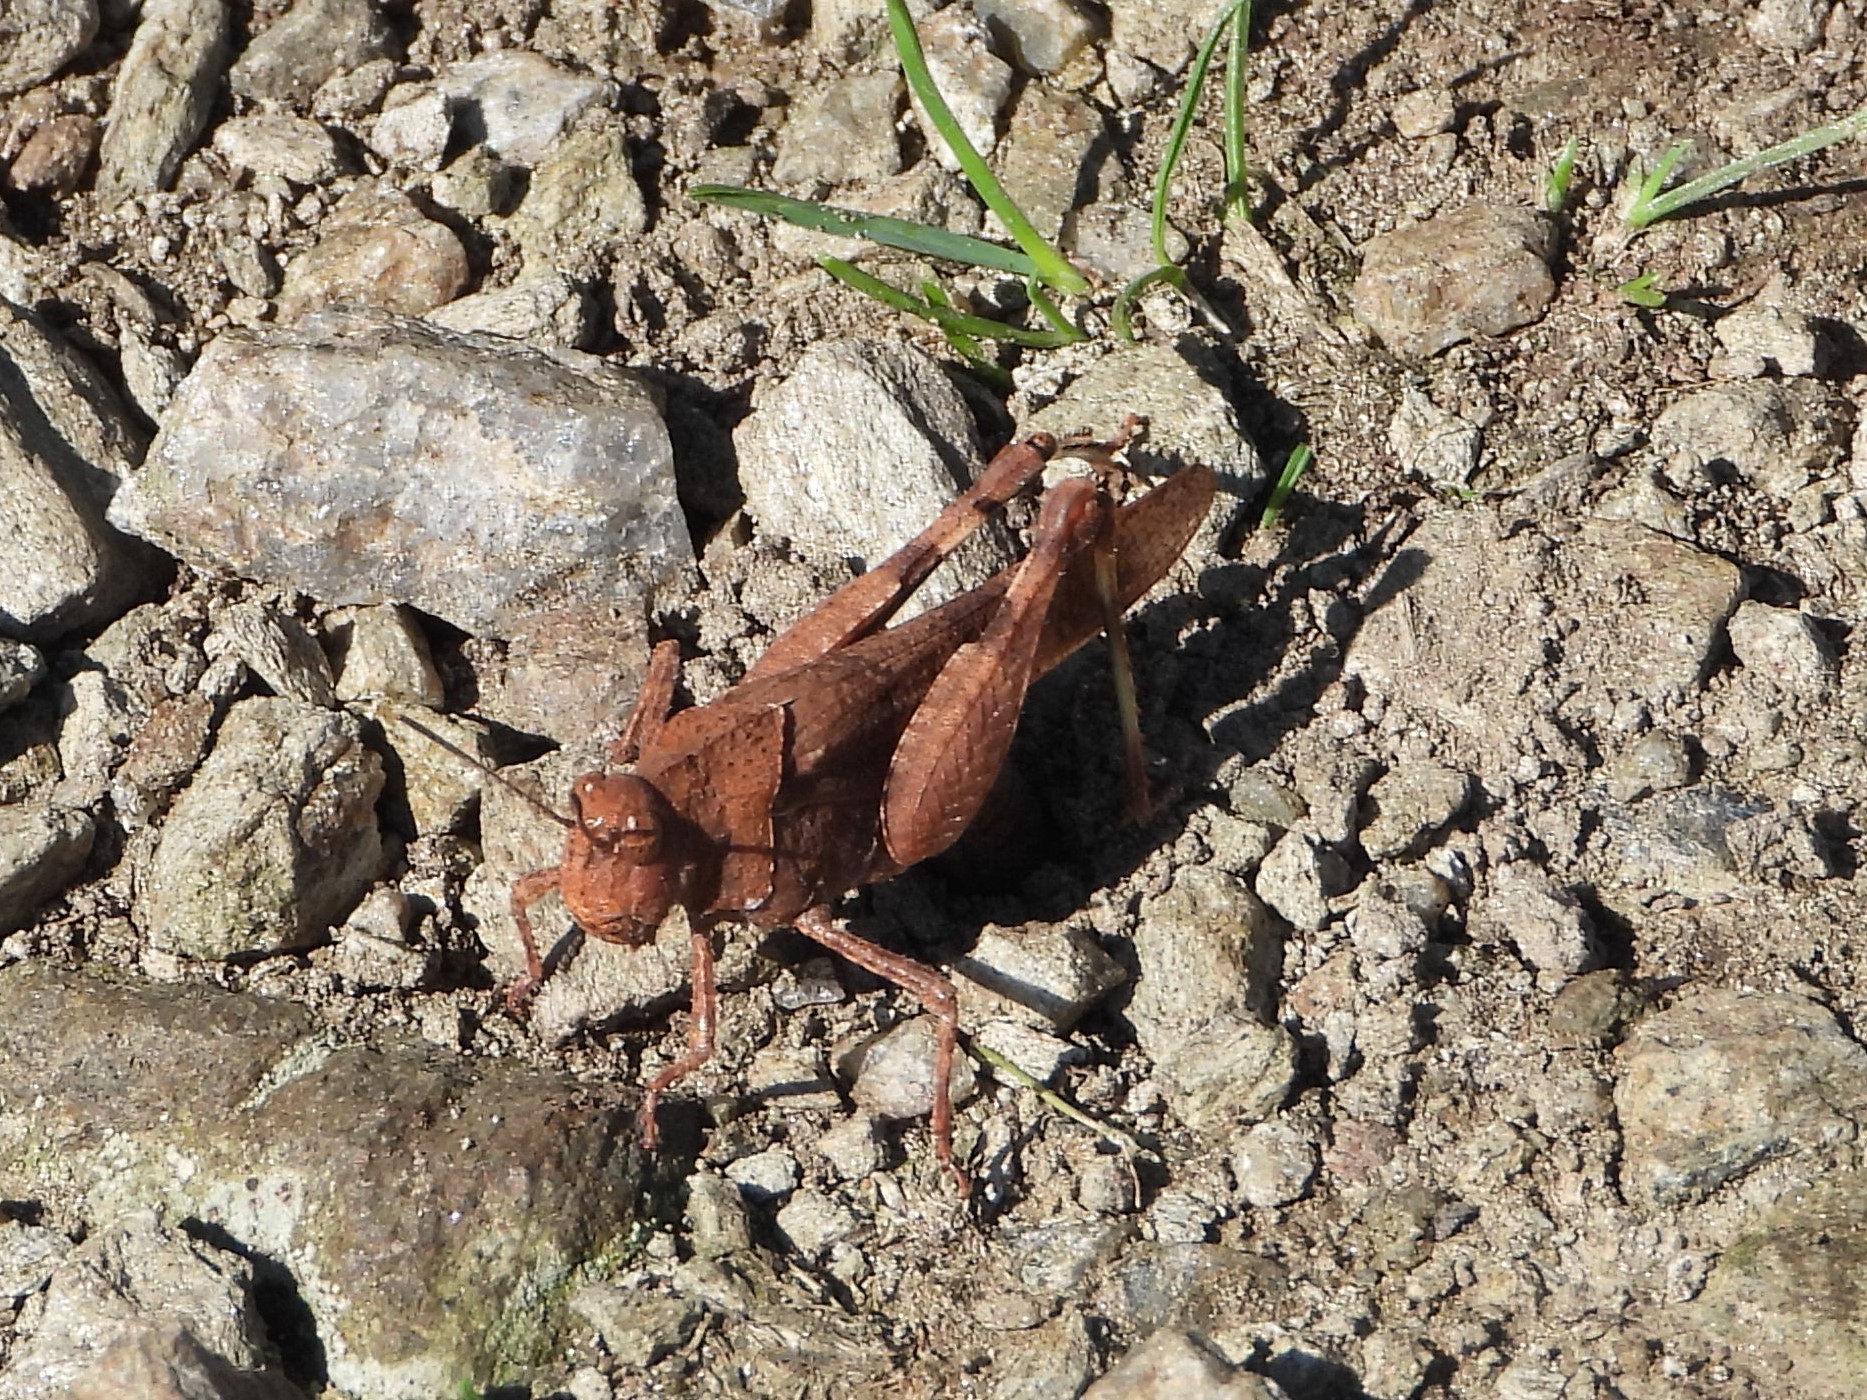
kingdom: Animalia
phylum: Arthropoda
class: Insecta
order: Orthoptera
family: Acrididae
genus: Oedipoda
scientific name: Oedipoda caerulescens
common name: Blue-winged grasshopper
